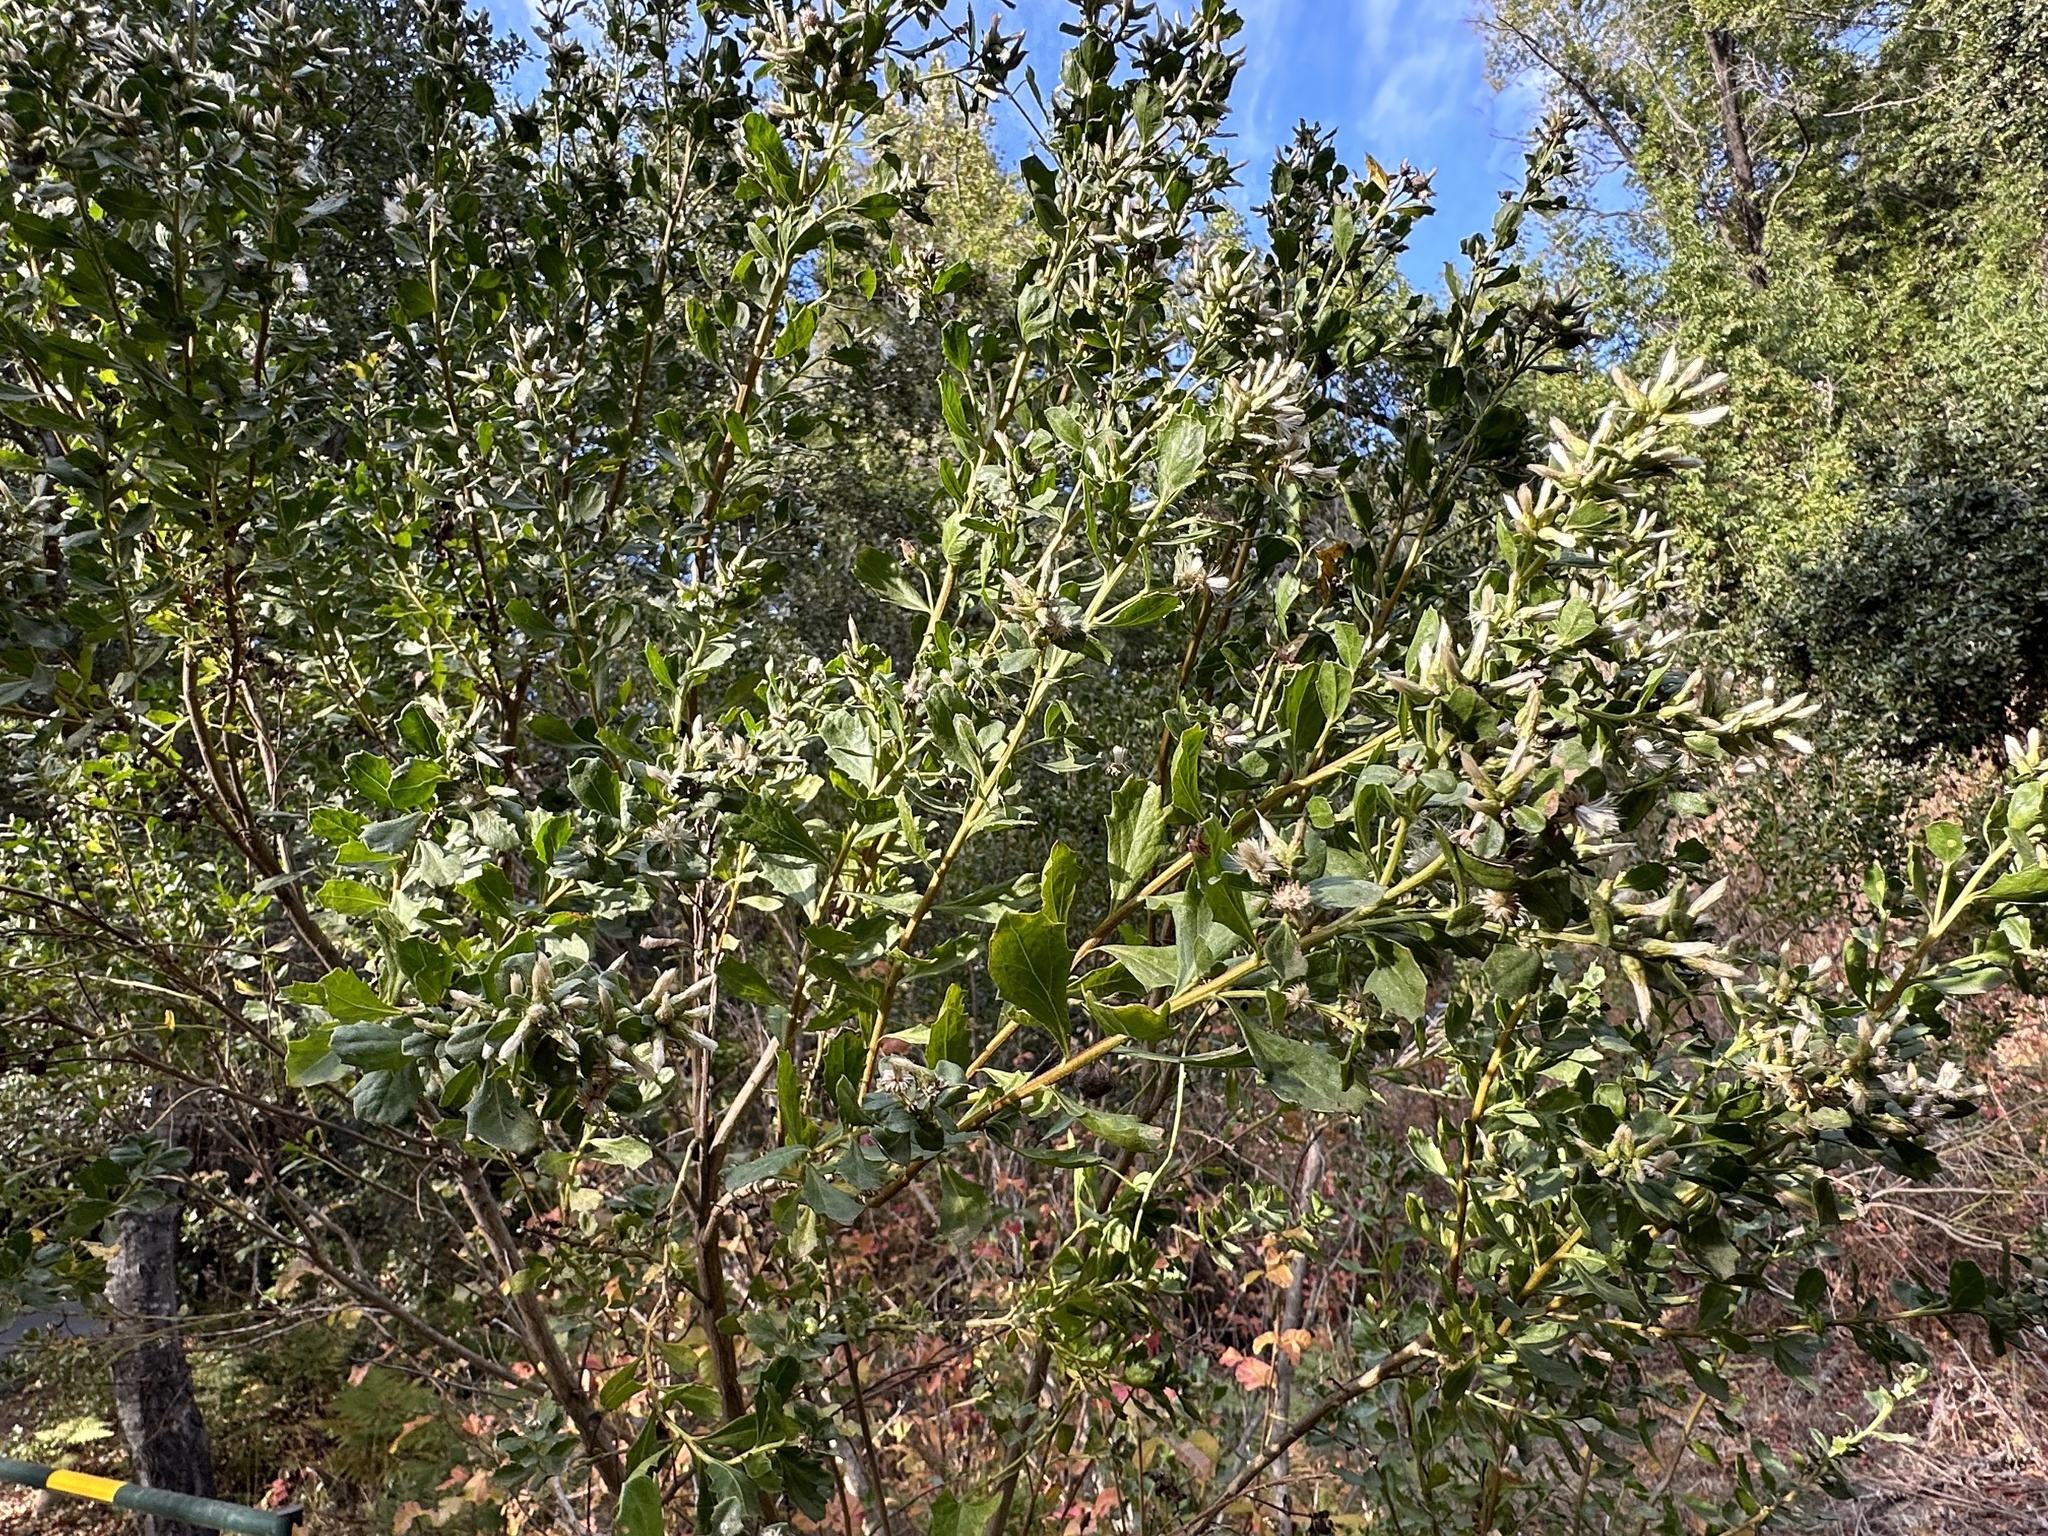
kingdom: Plantae
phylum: Tracheophyta
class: Magnoliopsida
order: Asterales
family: Asteraceae
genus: Baccharis
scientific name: Baccharis pilularis
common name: Coyotebrush
